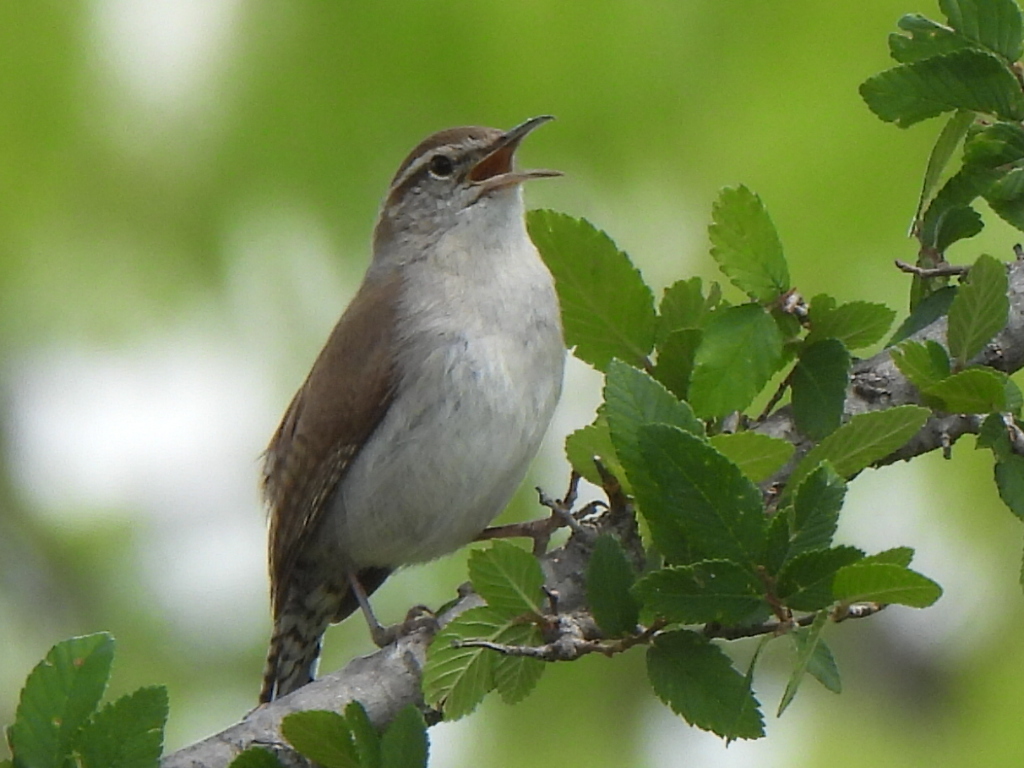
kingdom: Animalia
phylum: Chordata
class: Aves
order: Passeriformes
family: Troglodytidae
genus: Thryomanes
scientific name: Thryomanes bewickii
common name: Bewick's wren
